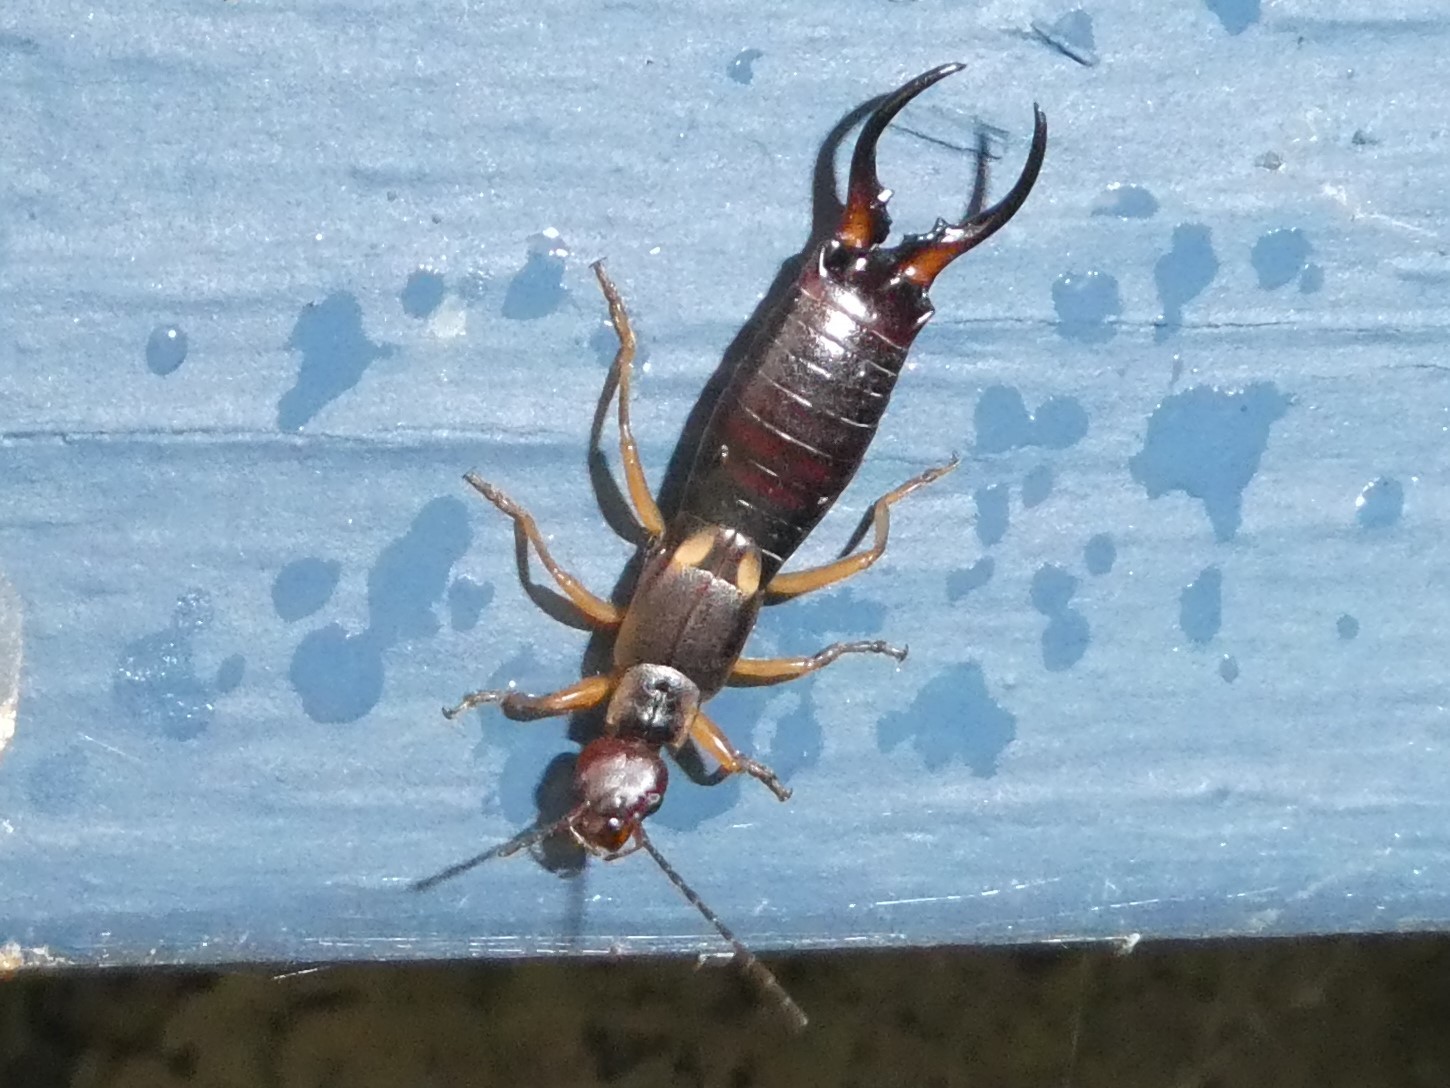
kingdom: Animalia
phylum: Arthropoda
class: Insecta
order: Dermaptera
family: Forficulidae
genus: Forficula
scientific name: Forficula
